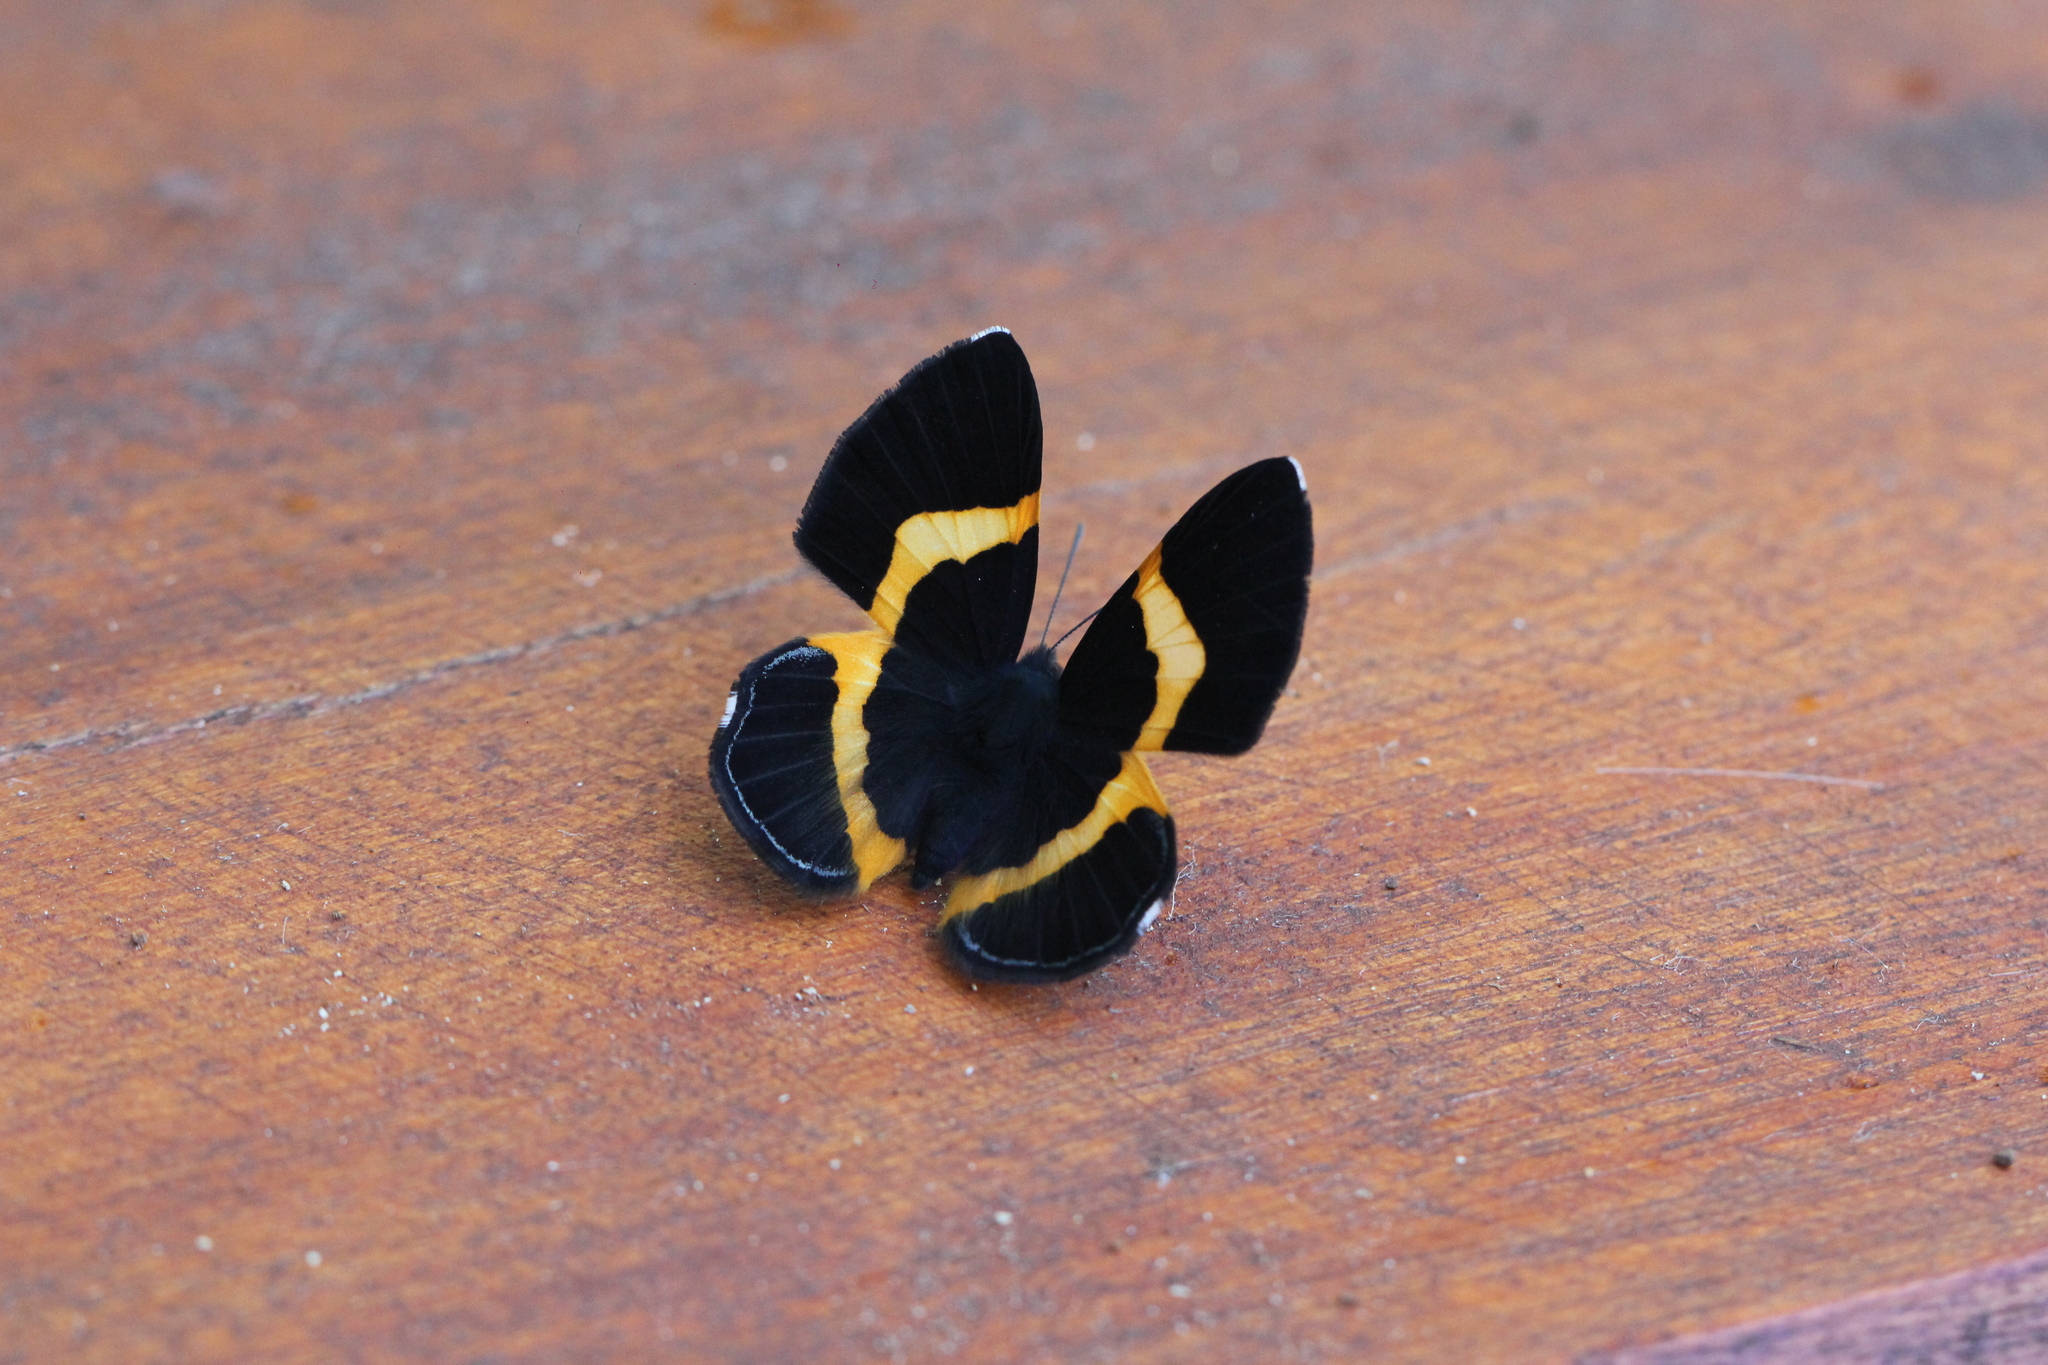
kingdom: Animalia
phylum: Arthropoda
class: Insecta
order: Lepidoptera
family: Riodinidae
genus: Notheme
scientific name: Notheme eumeus
